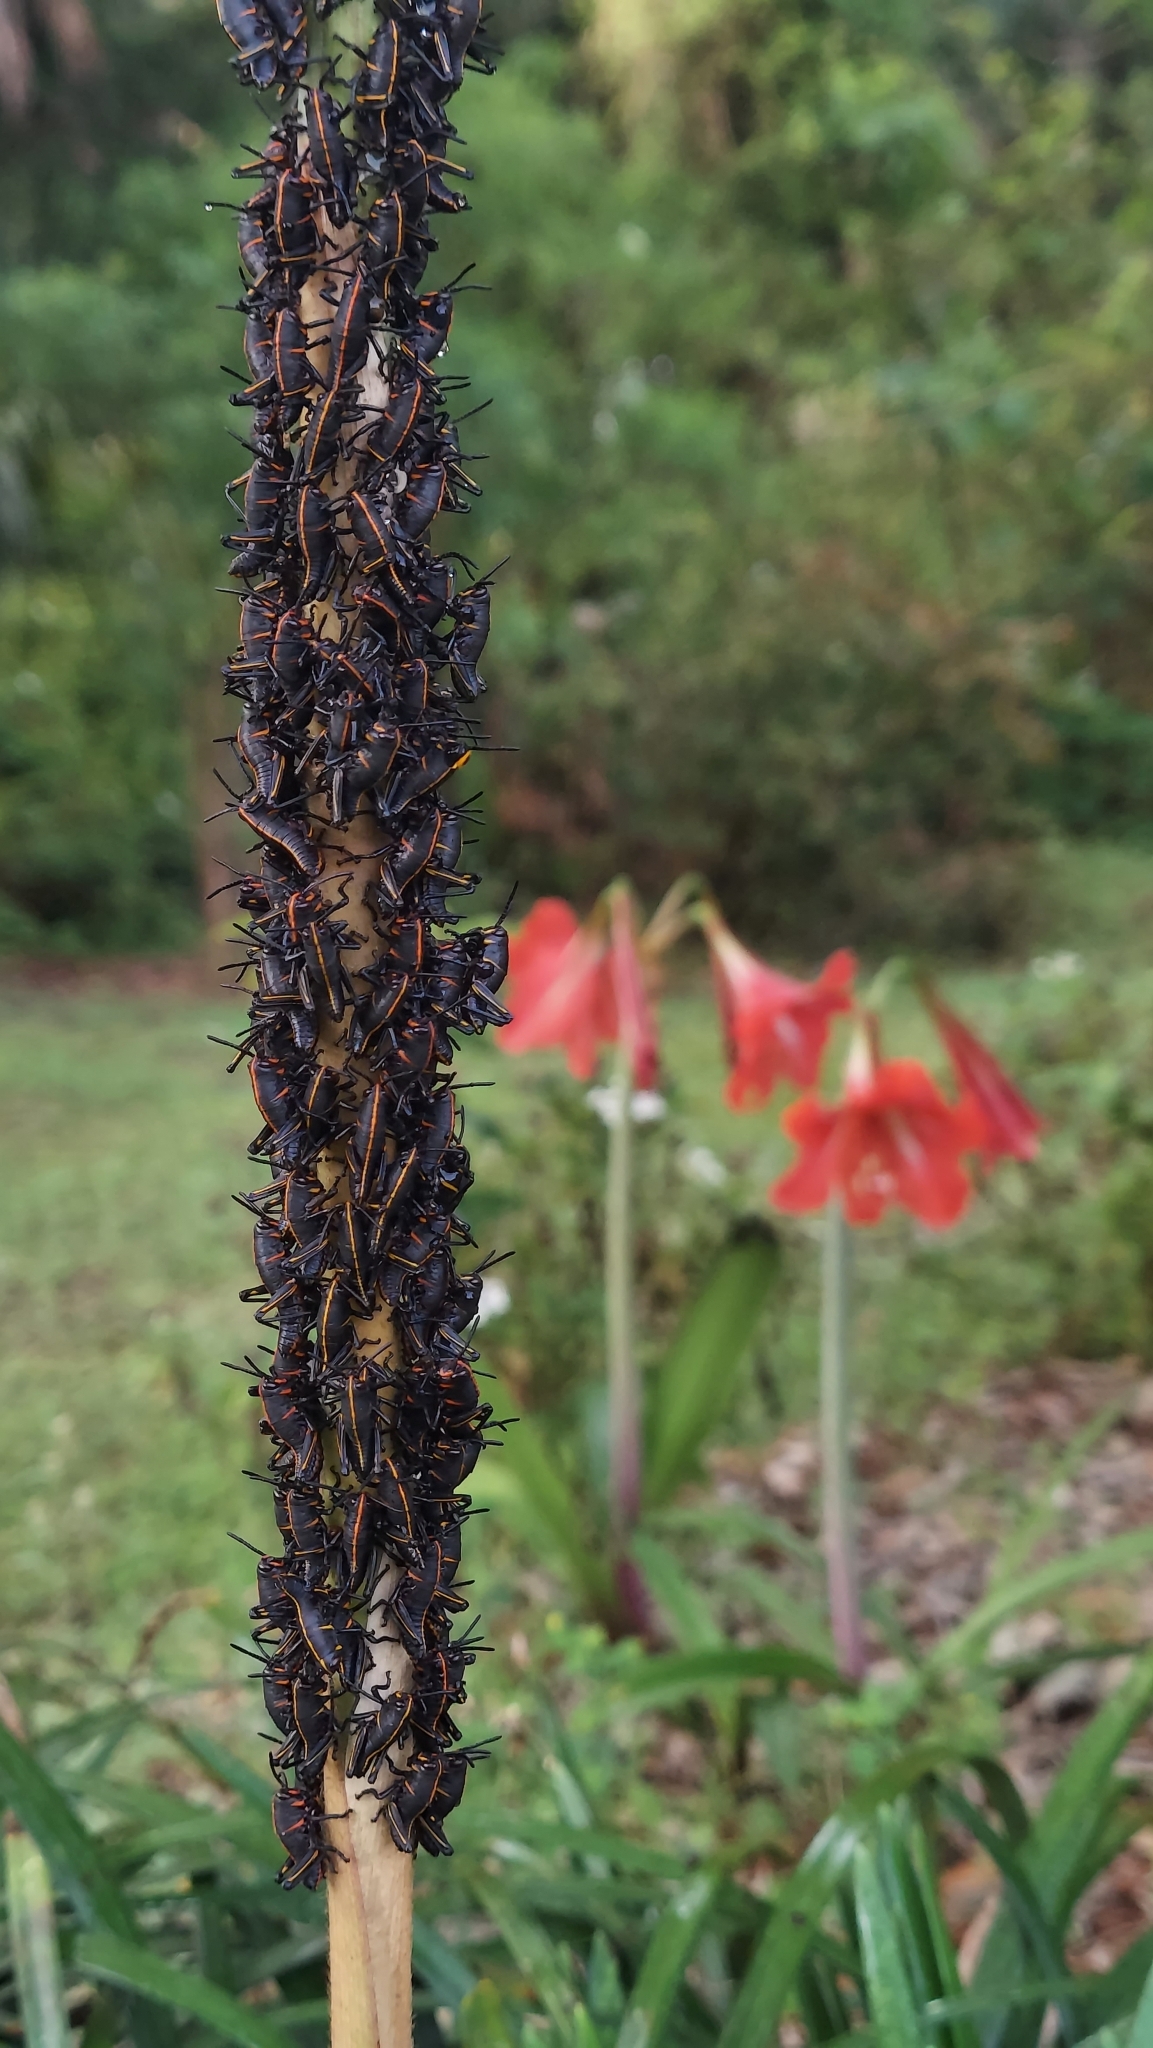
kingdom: Animalia
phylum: Arthropoda
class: Insecta
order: Orthoptera
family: Romaleidae
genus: Romalea
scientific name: Romalea microptera
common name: Eastern lubber grasshopper
